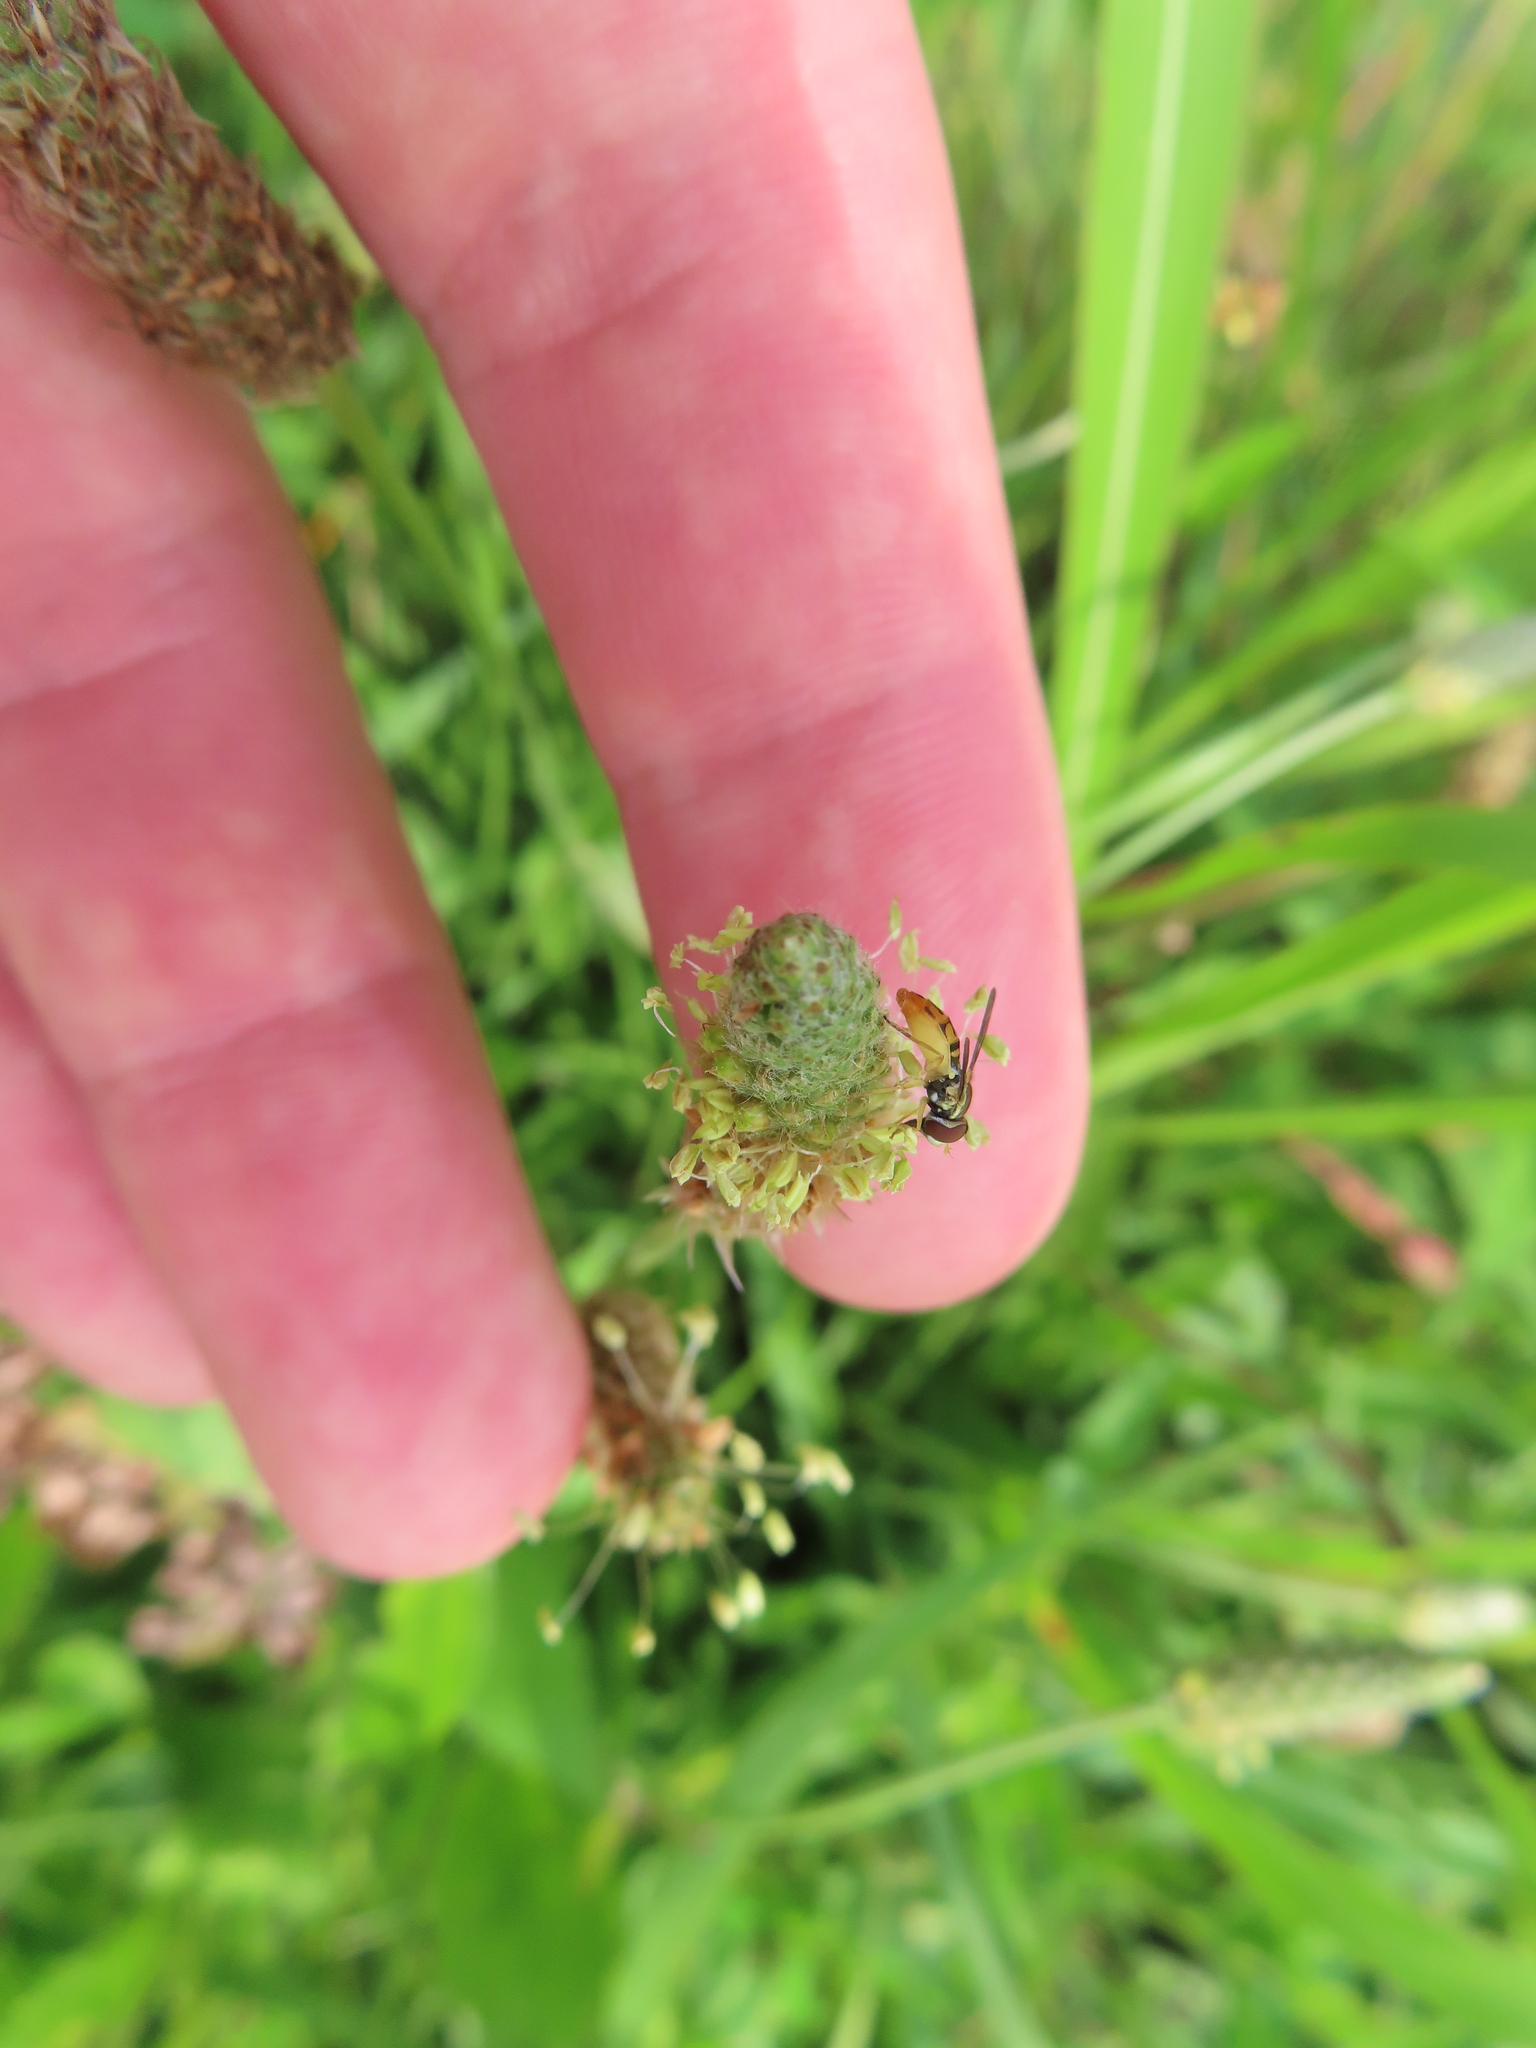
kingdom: Plantae
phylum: Tracheophyta
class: Magnoliopsida
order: Lamiales
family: Plantaginaceae
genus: Plantago
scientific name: Plantago lanceolata
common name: Ribwort plantain
